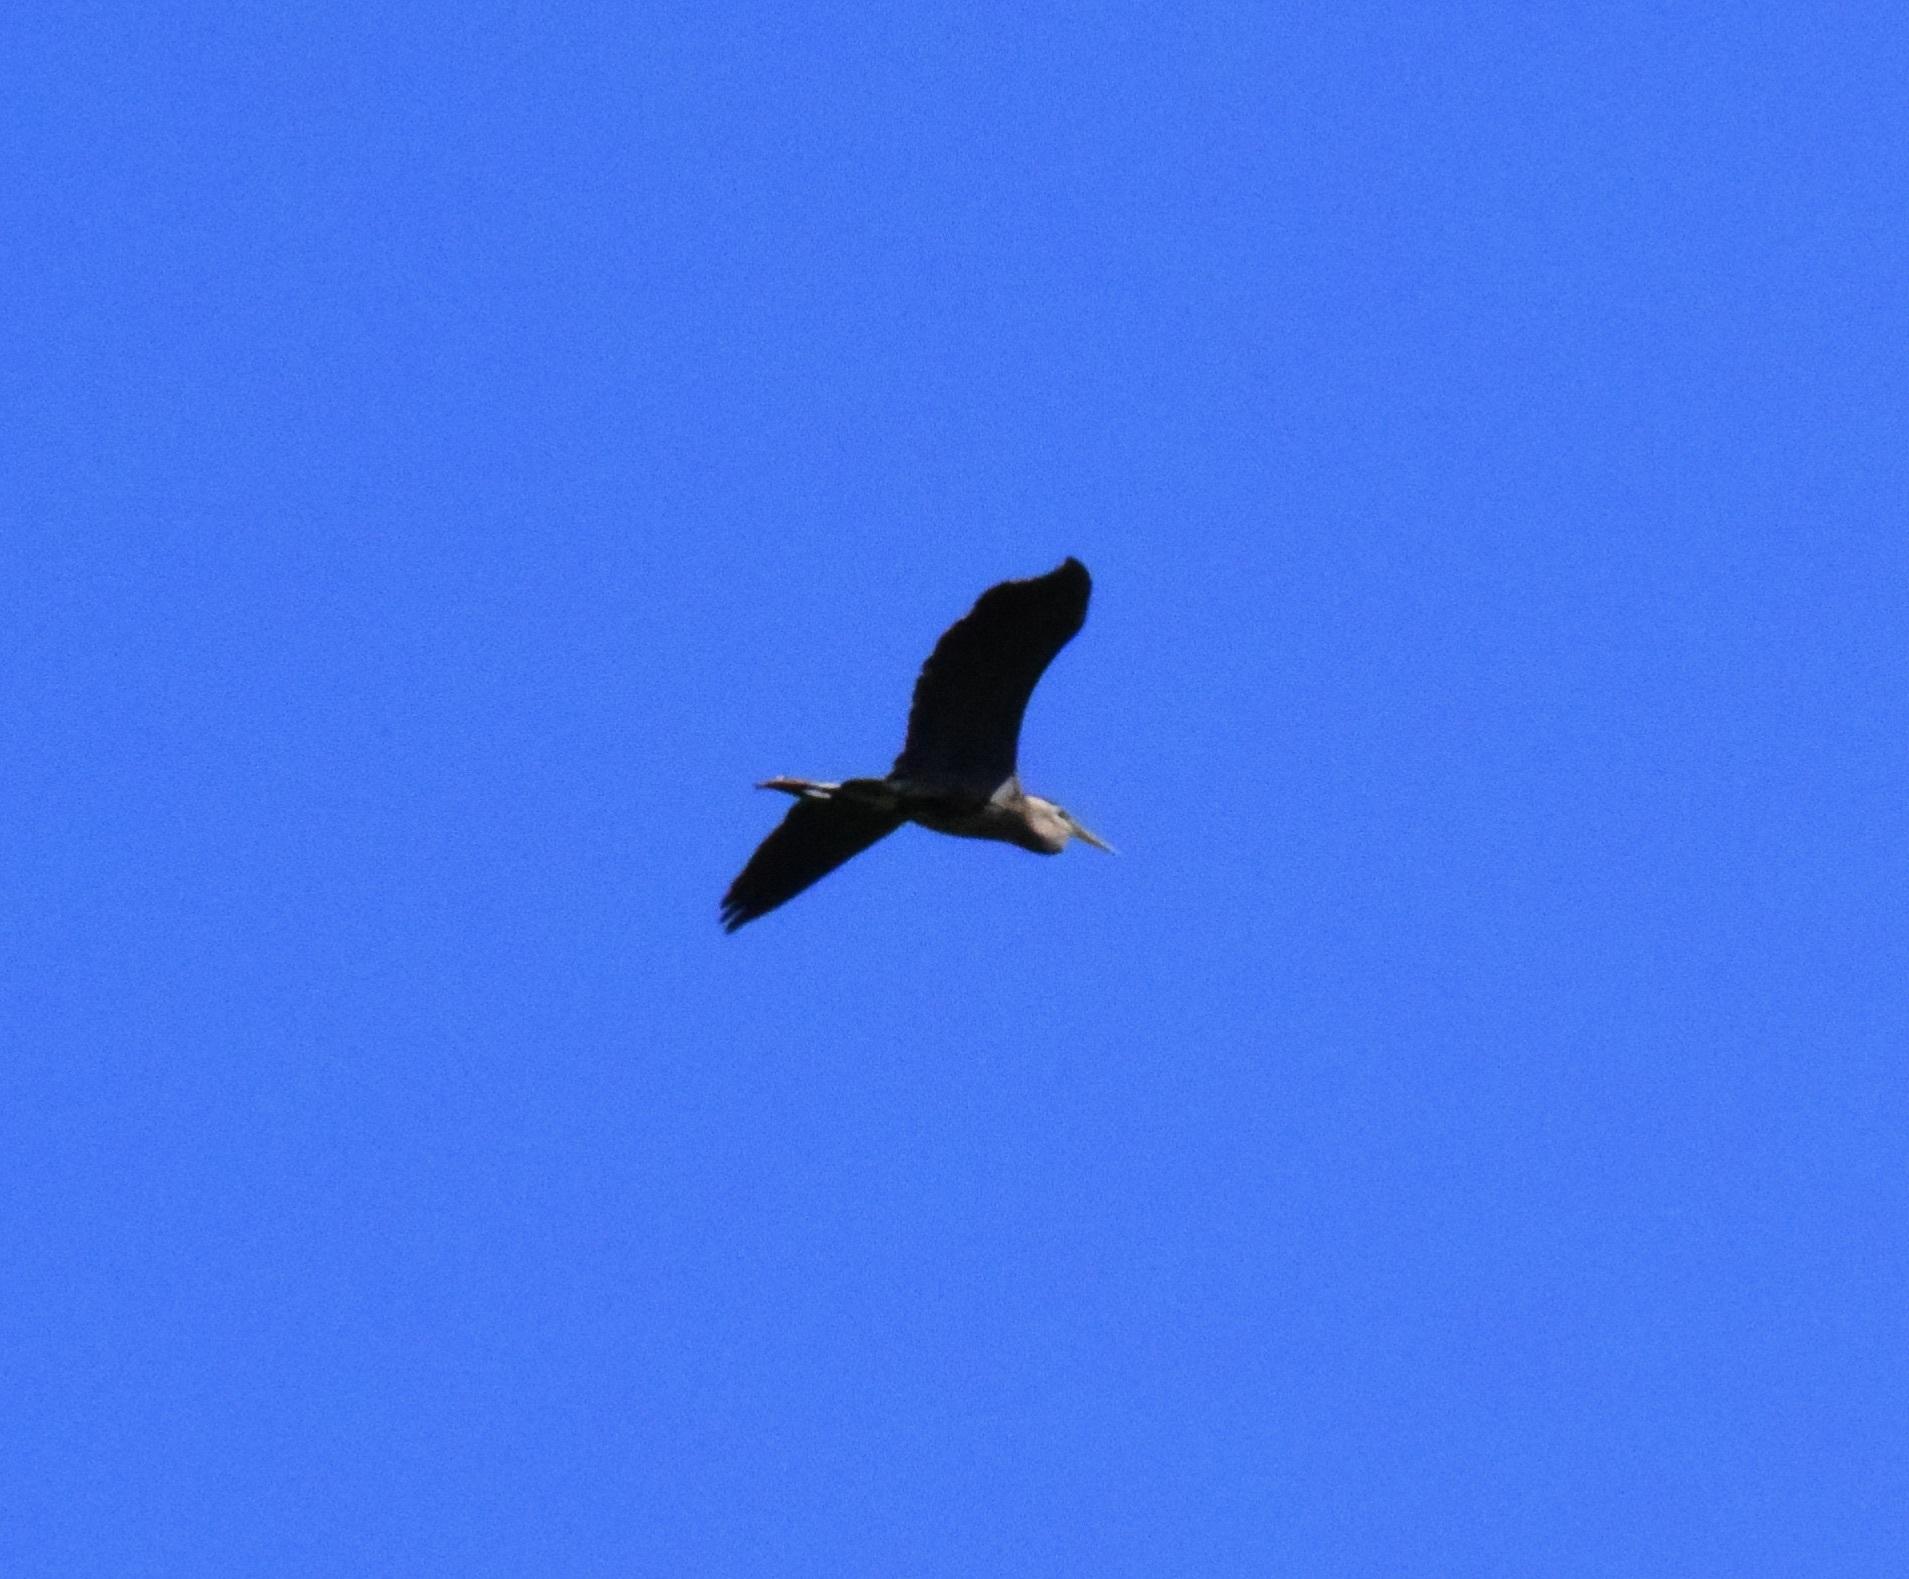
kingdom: Animalia
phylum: Chordata
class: Aves
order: Pelecaniformes
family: Ardeidae
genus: Ardea
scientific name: Ardea herodias
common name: Great blue heron
